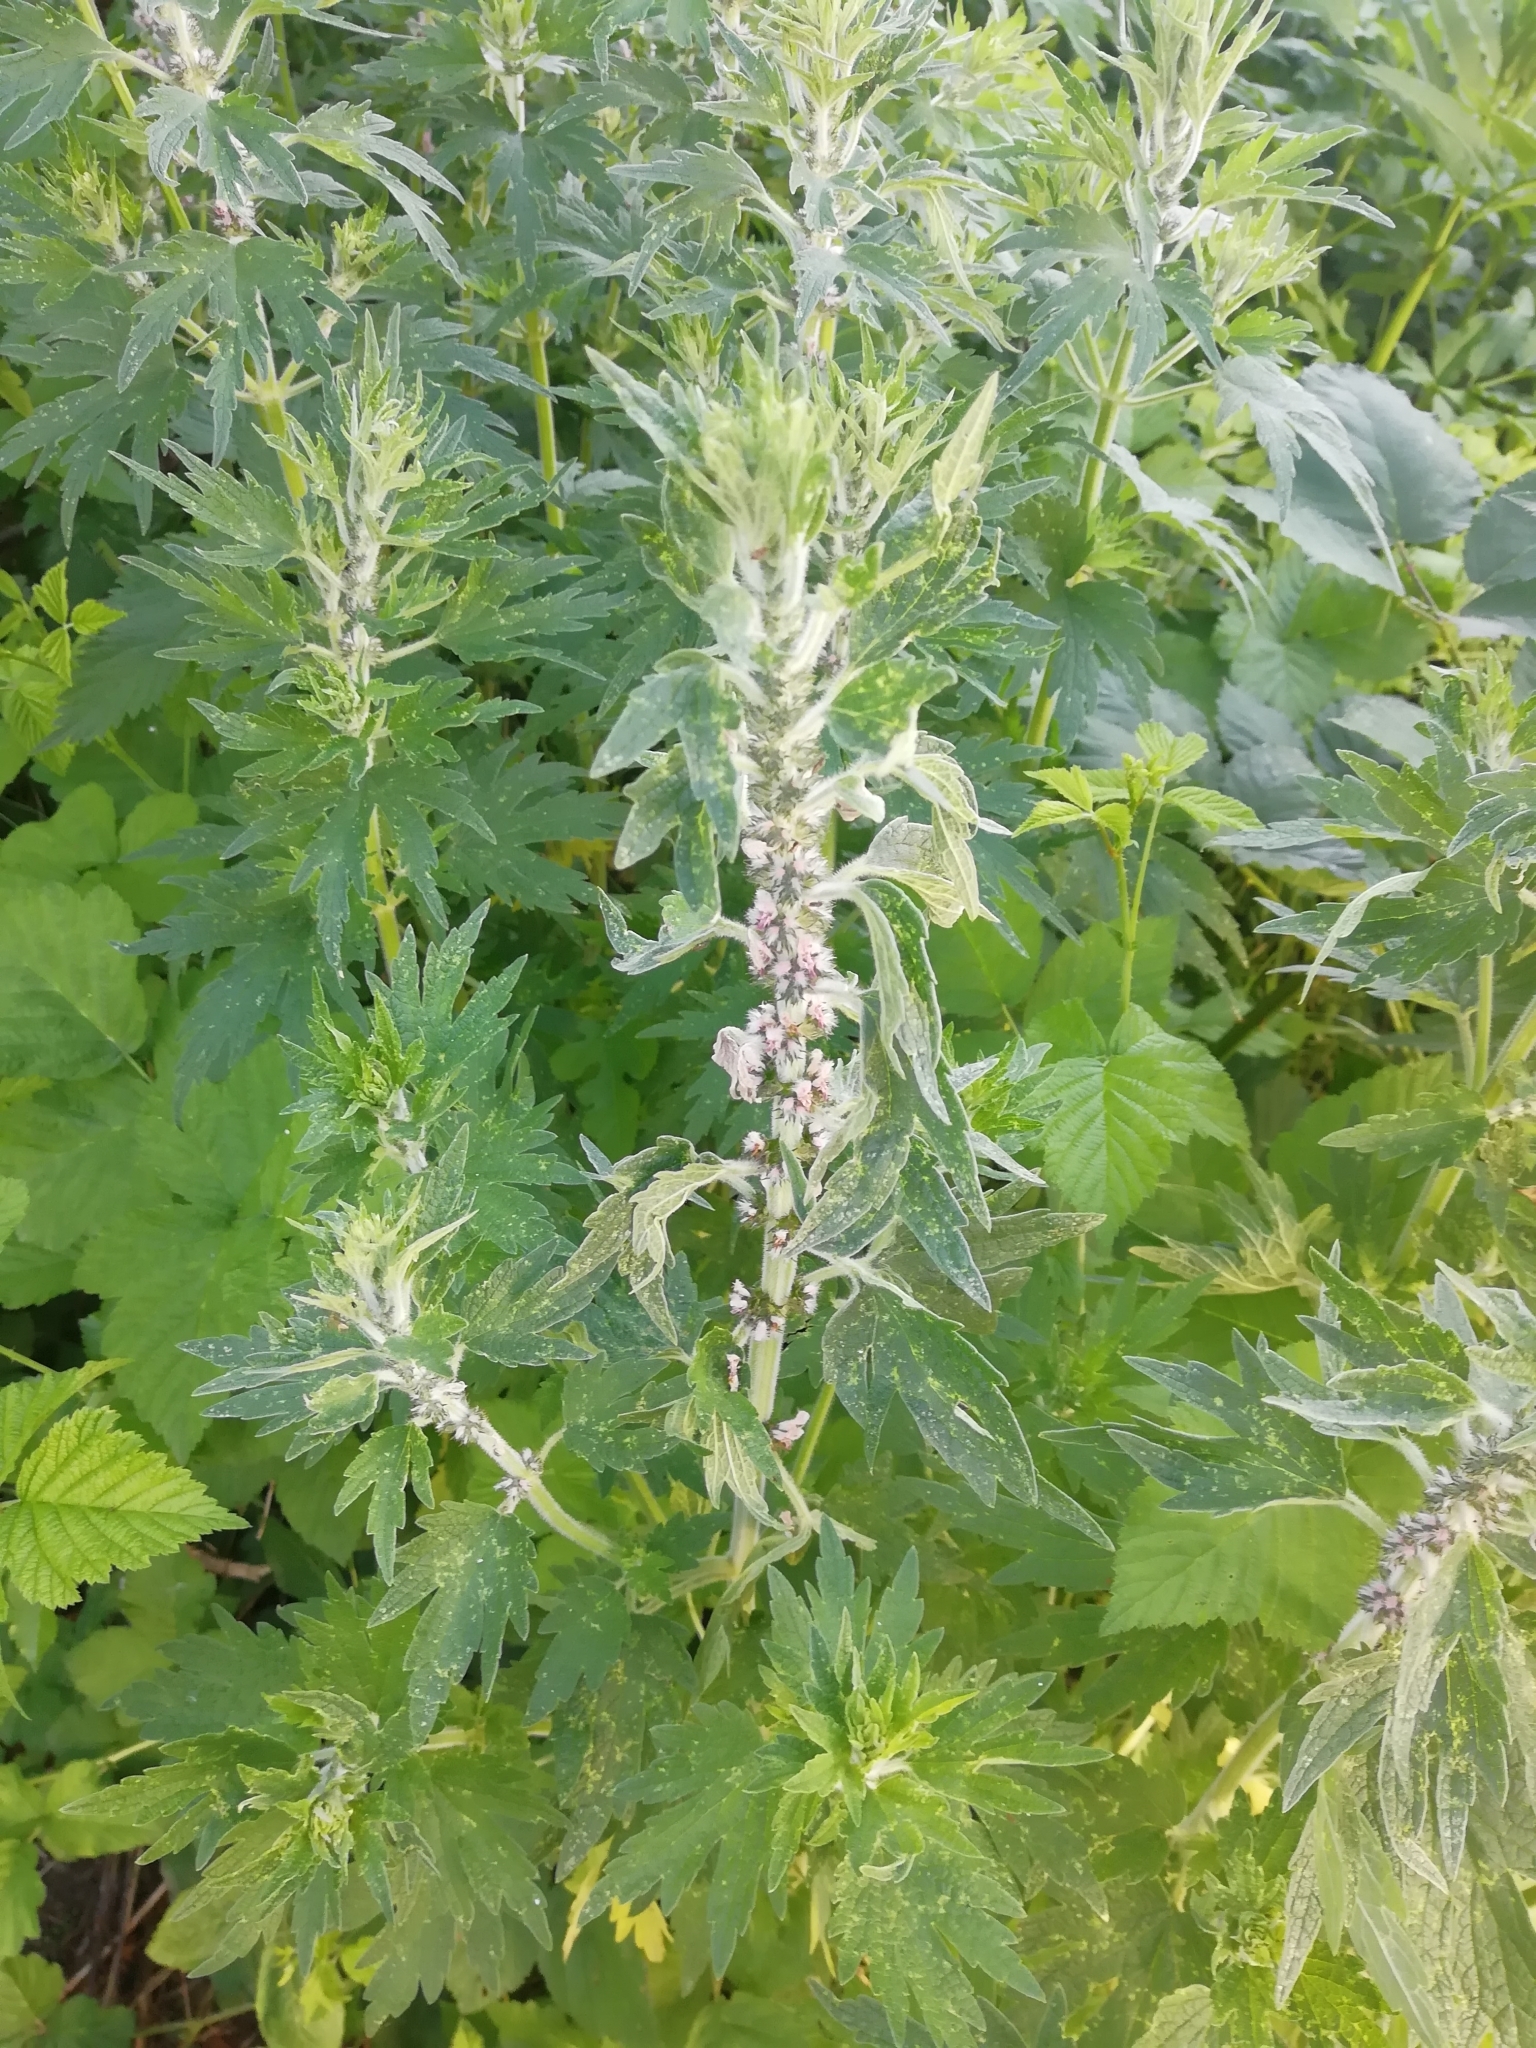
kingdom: Plantae
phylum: Tracheophyta
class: Magnoliopsida
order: Lamiales
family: Lamiaceae
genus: Leonurus
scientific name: Leonurus quinquelobatus
